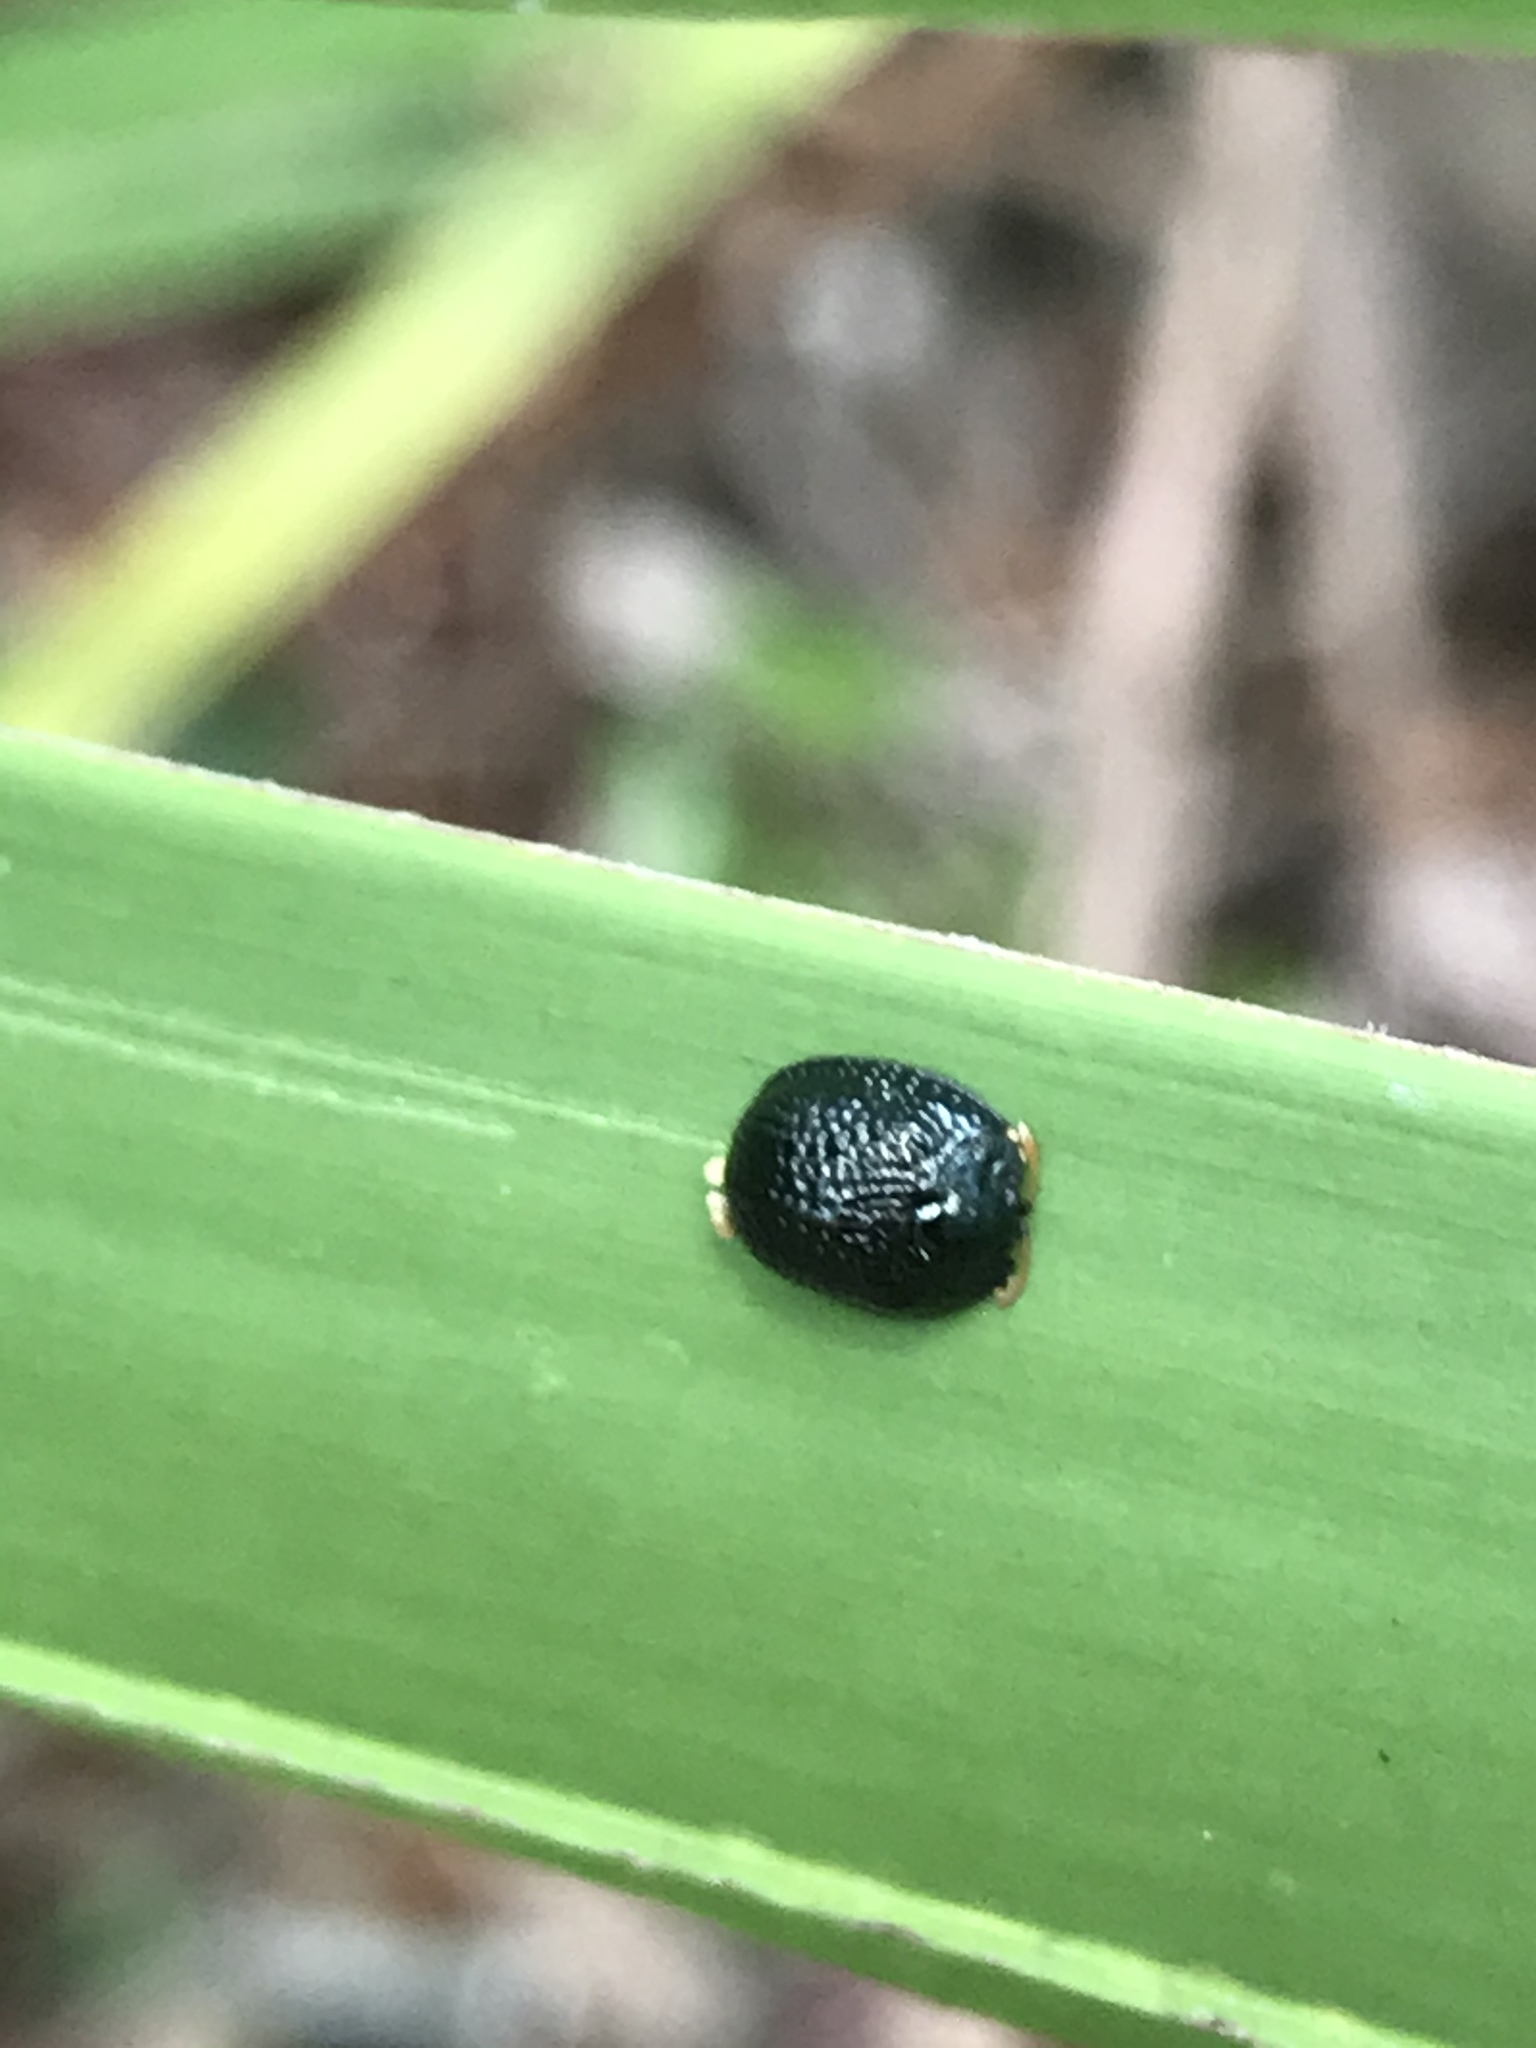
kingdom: Animalia
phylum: Arthropoda
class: Insecta
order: Coleoptera
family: Chrysomelidae
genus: Hemisphaerota
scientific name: Hemisphaerota cyanea
